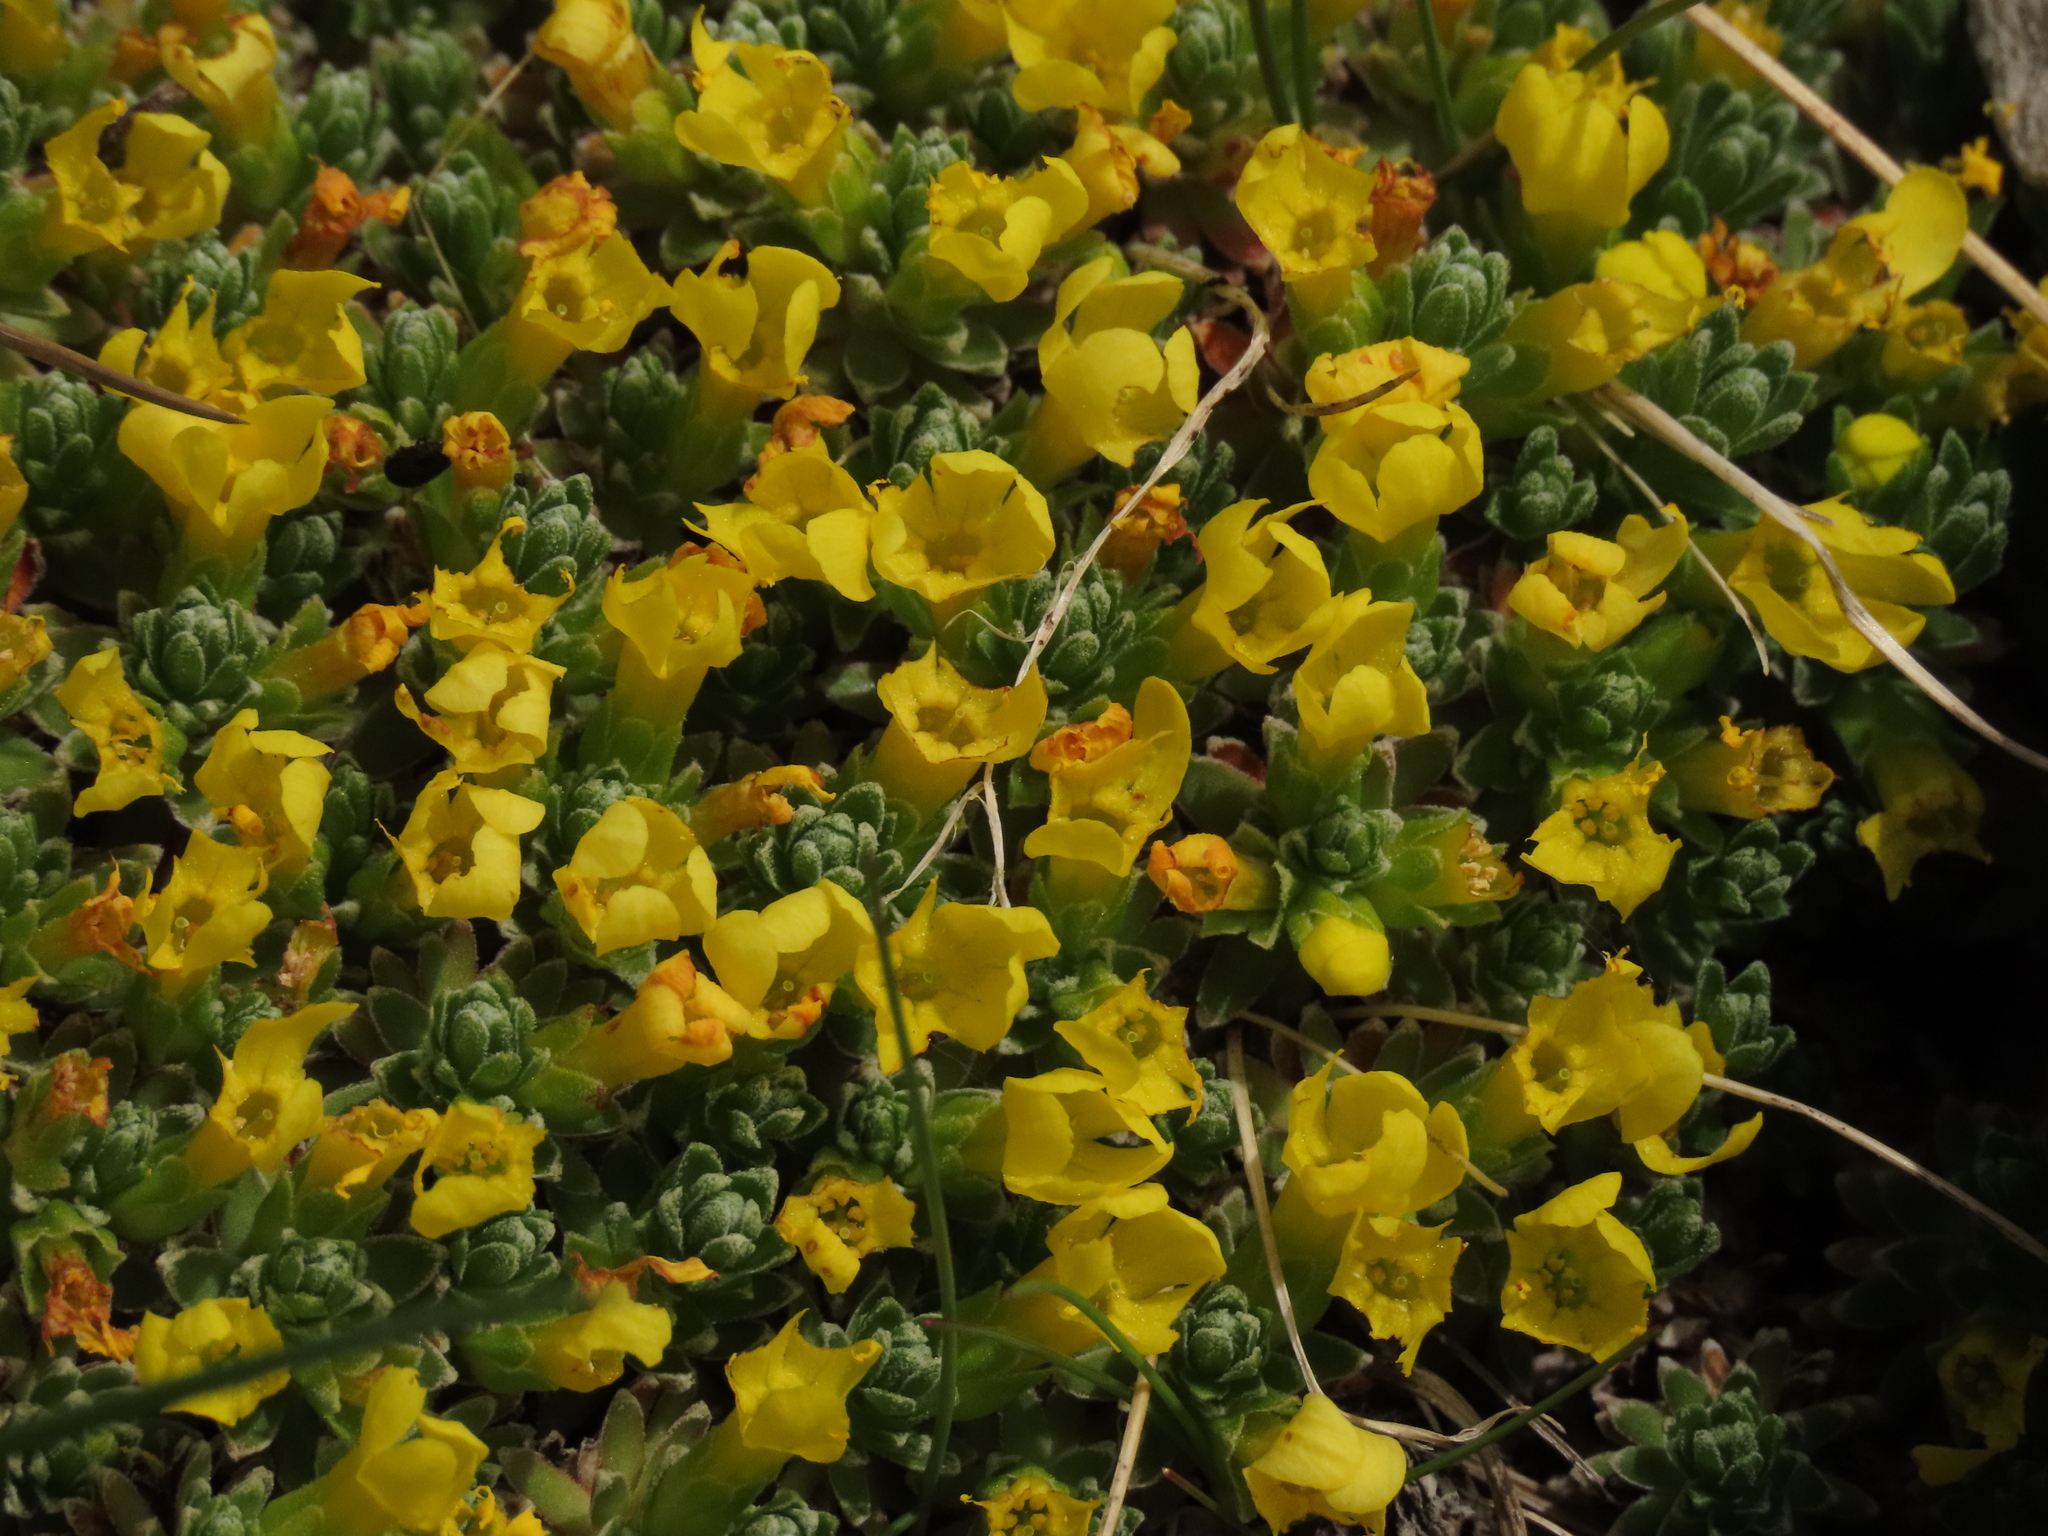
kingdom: Plantae
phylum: Tracheophyta
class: Magnoliopsida
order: Ericales
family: Primulaceae
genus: Androsace
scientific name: Androsace vitaliana
